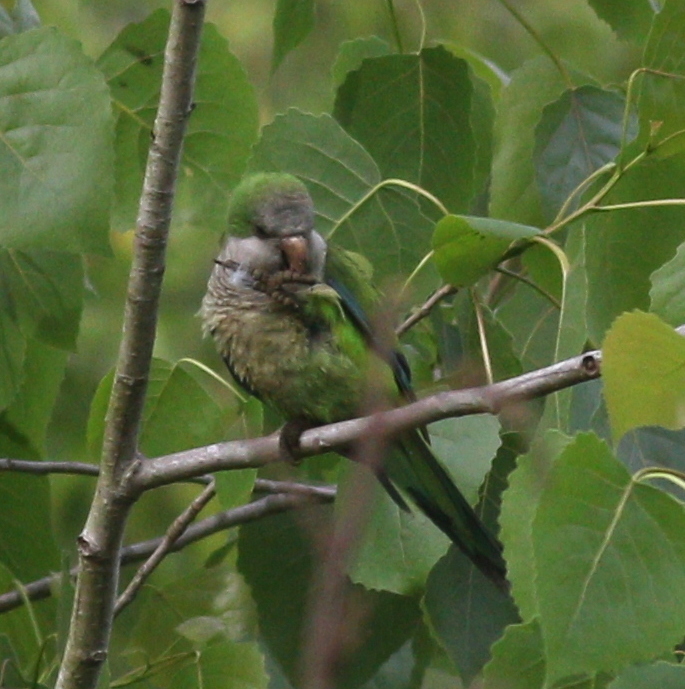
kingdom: Animalia
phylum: Chordata
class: Aves
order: Psittaciformes
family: Psittacidae
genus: Myiopsitta
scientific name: Myiopsitta monachus
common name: Monk parakeet
